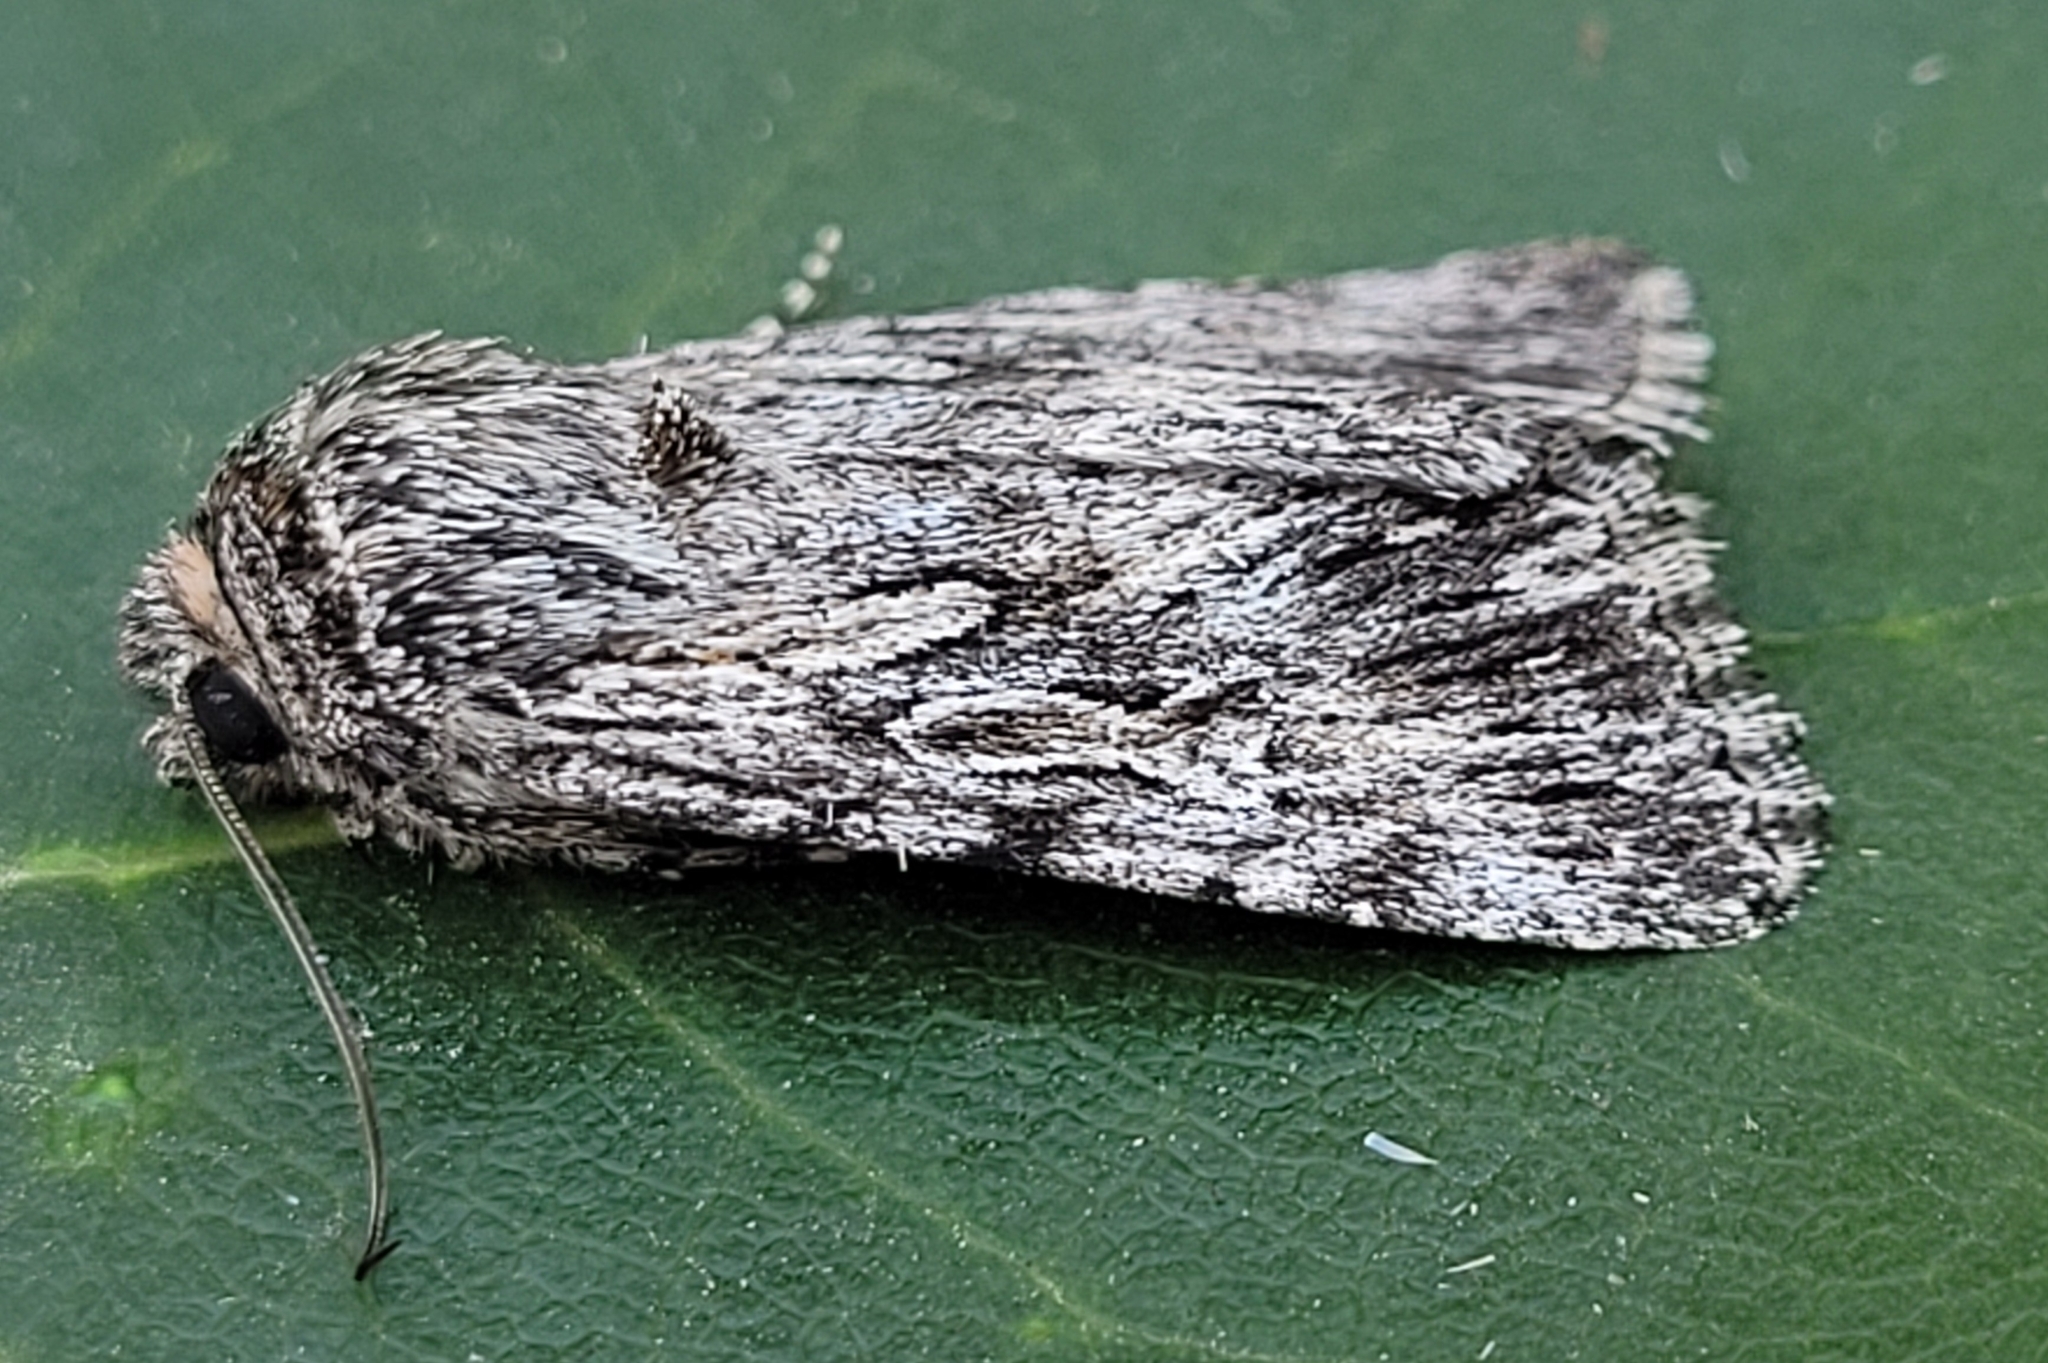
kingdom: Animalia
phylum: Arthropoda
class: Insecta
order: Lepidoptera
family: Noctuidae
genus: Sympistis
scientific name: Sympistis poliochroa
